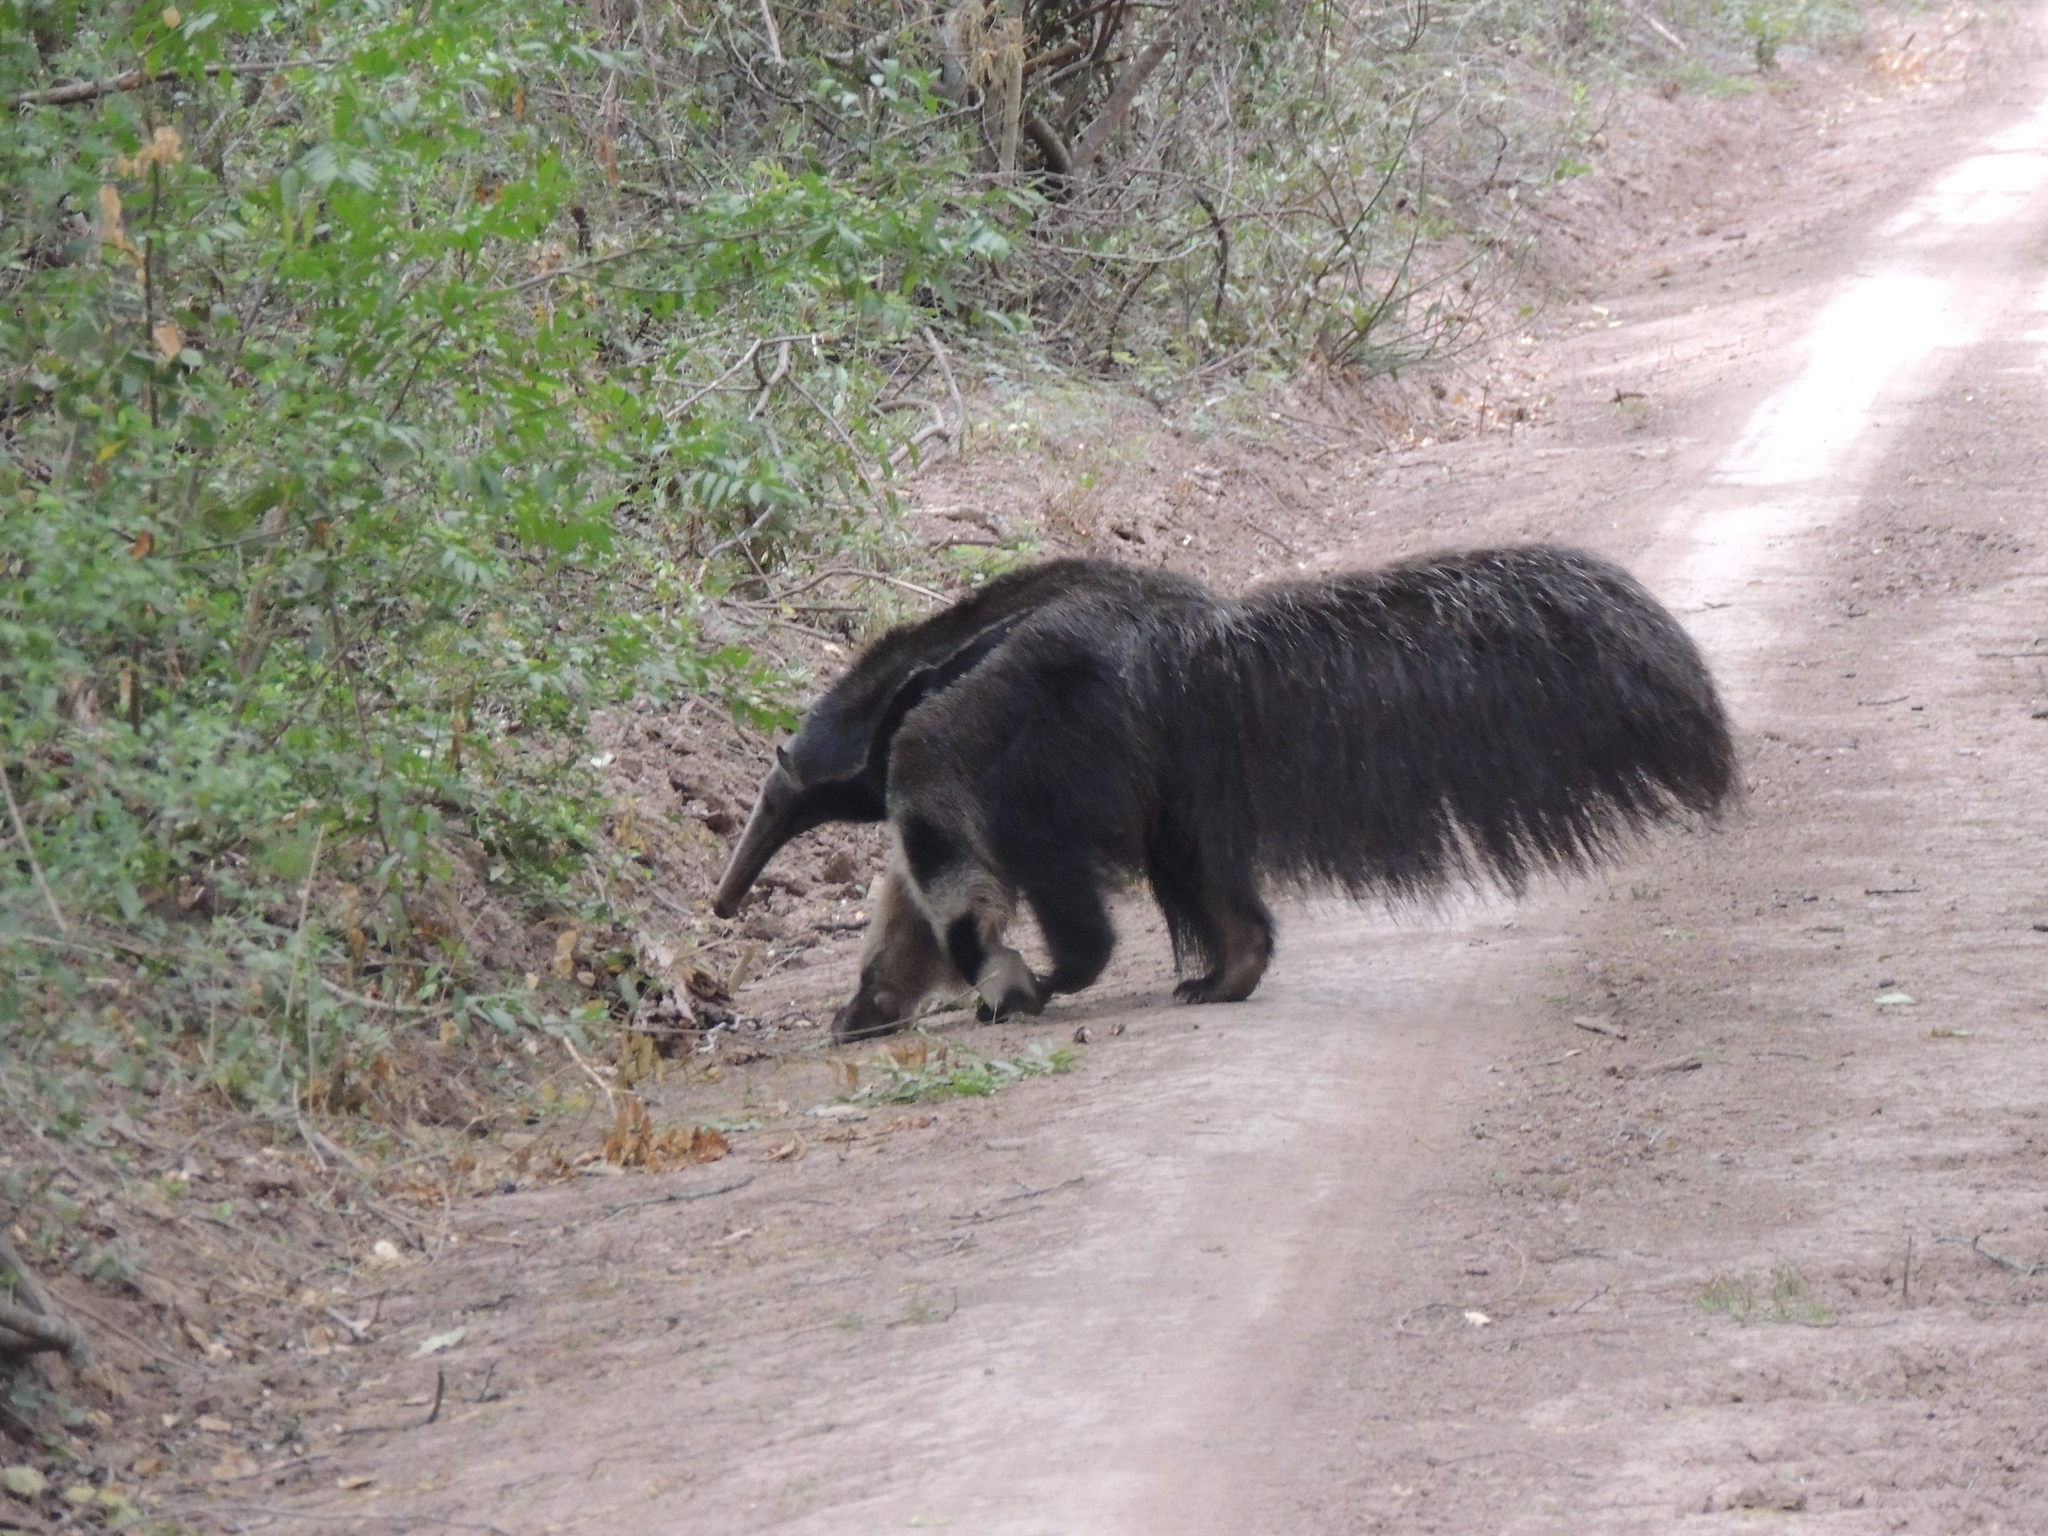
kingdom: Animalia
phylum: Chordata
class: Mammalia
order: Pilosa
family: Myrmecophagidae
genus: Myrmecophaga
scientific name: Myrmecophaga tridactyla
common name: Giant anteater
